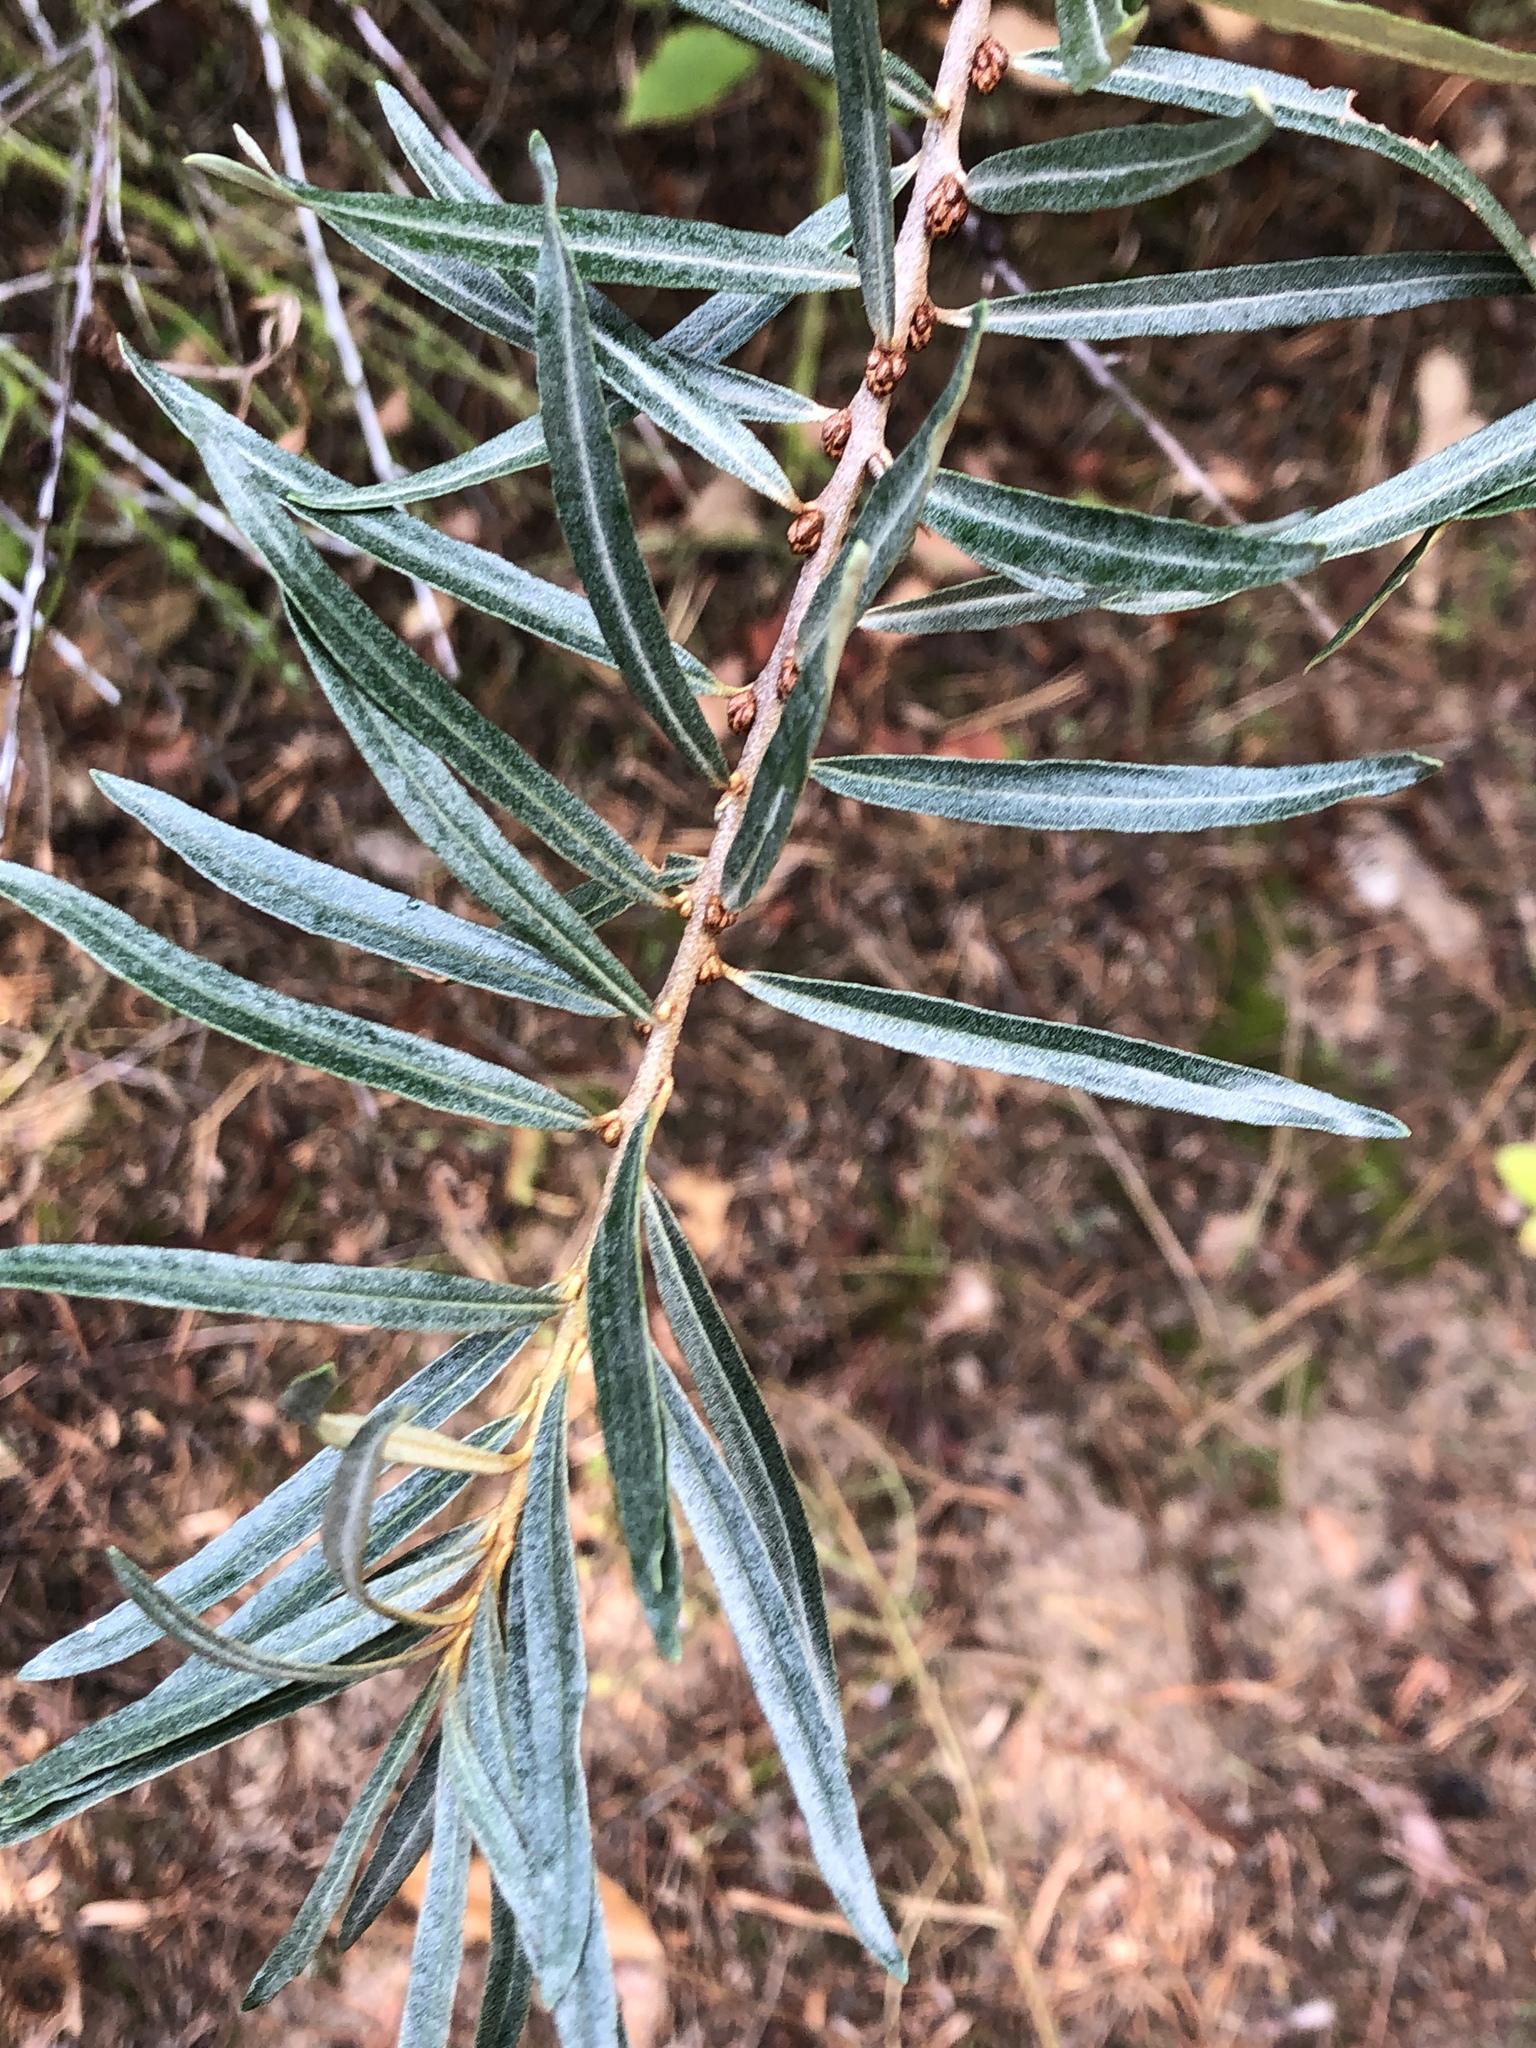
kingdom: Plantae
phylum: Tracheophyta
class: Magnoliopsida
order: Rosales
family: Elaeagnaceae
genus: Hippophae
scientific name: Hippophae rhamnoides
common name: Sea-buckthorn
